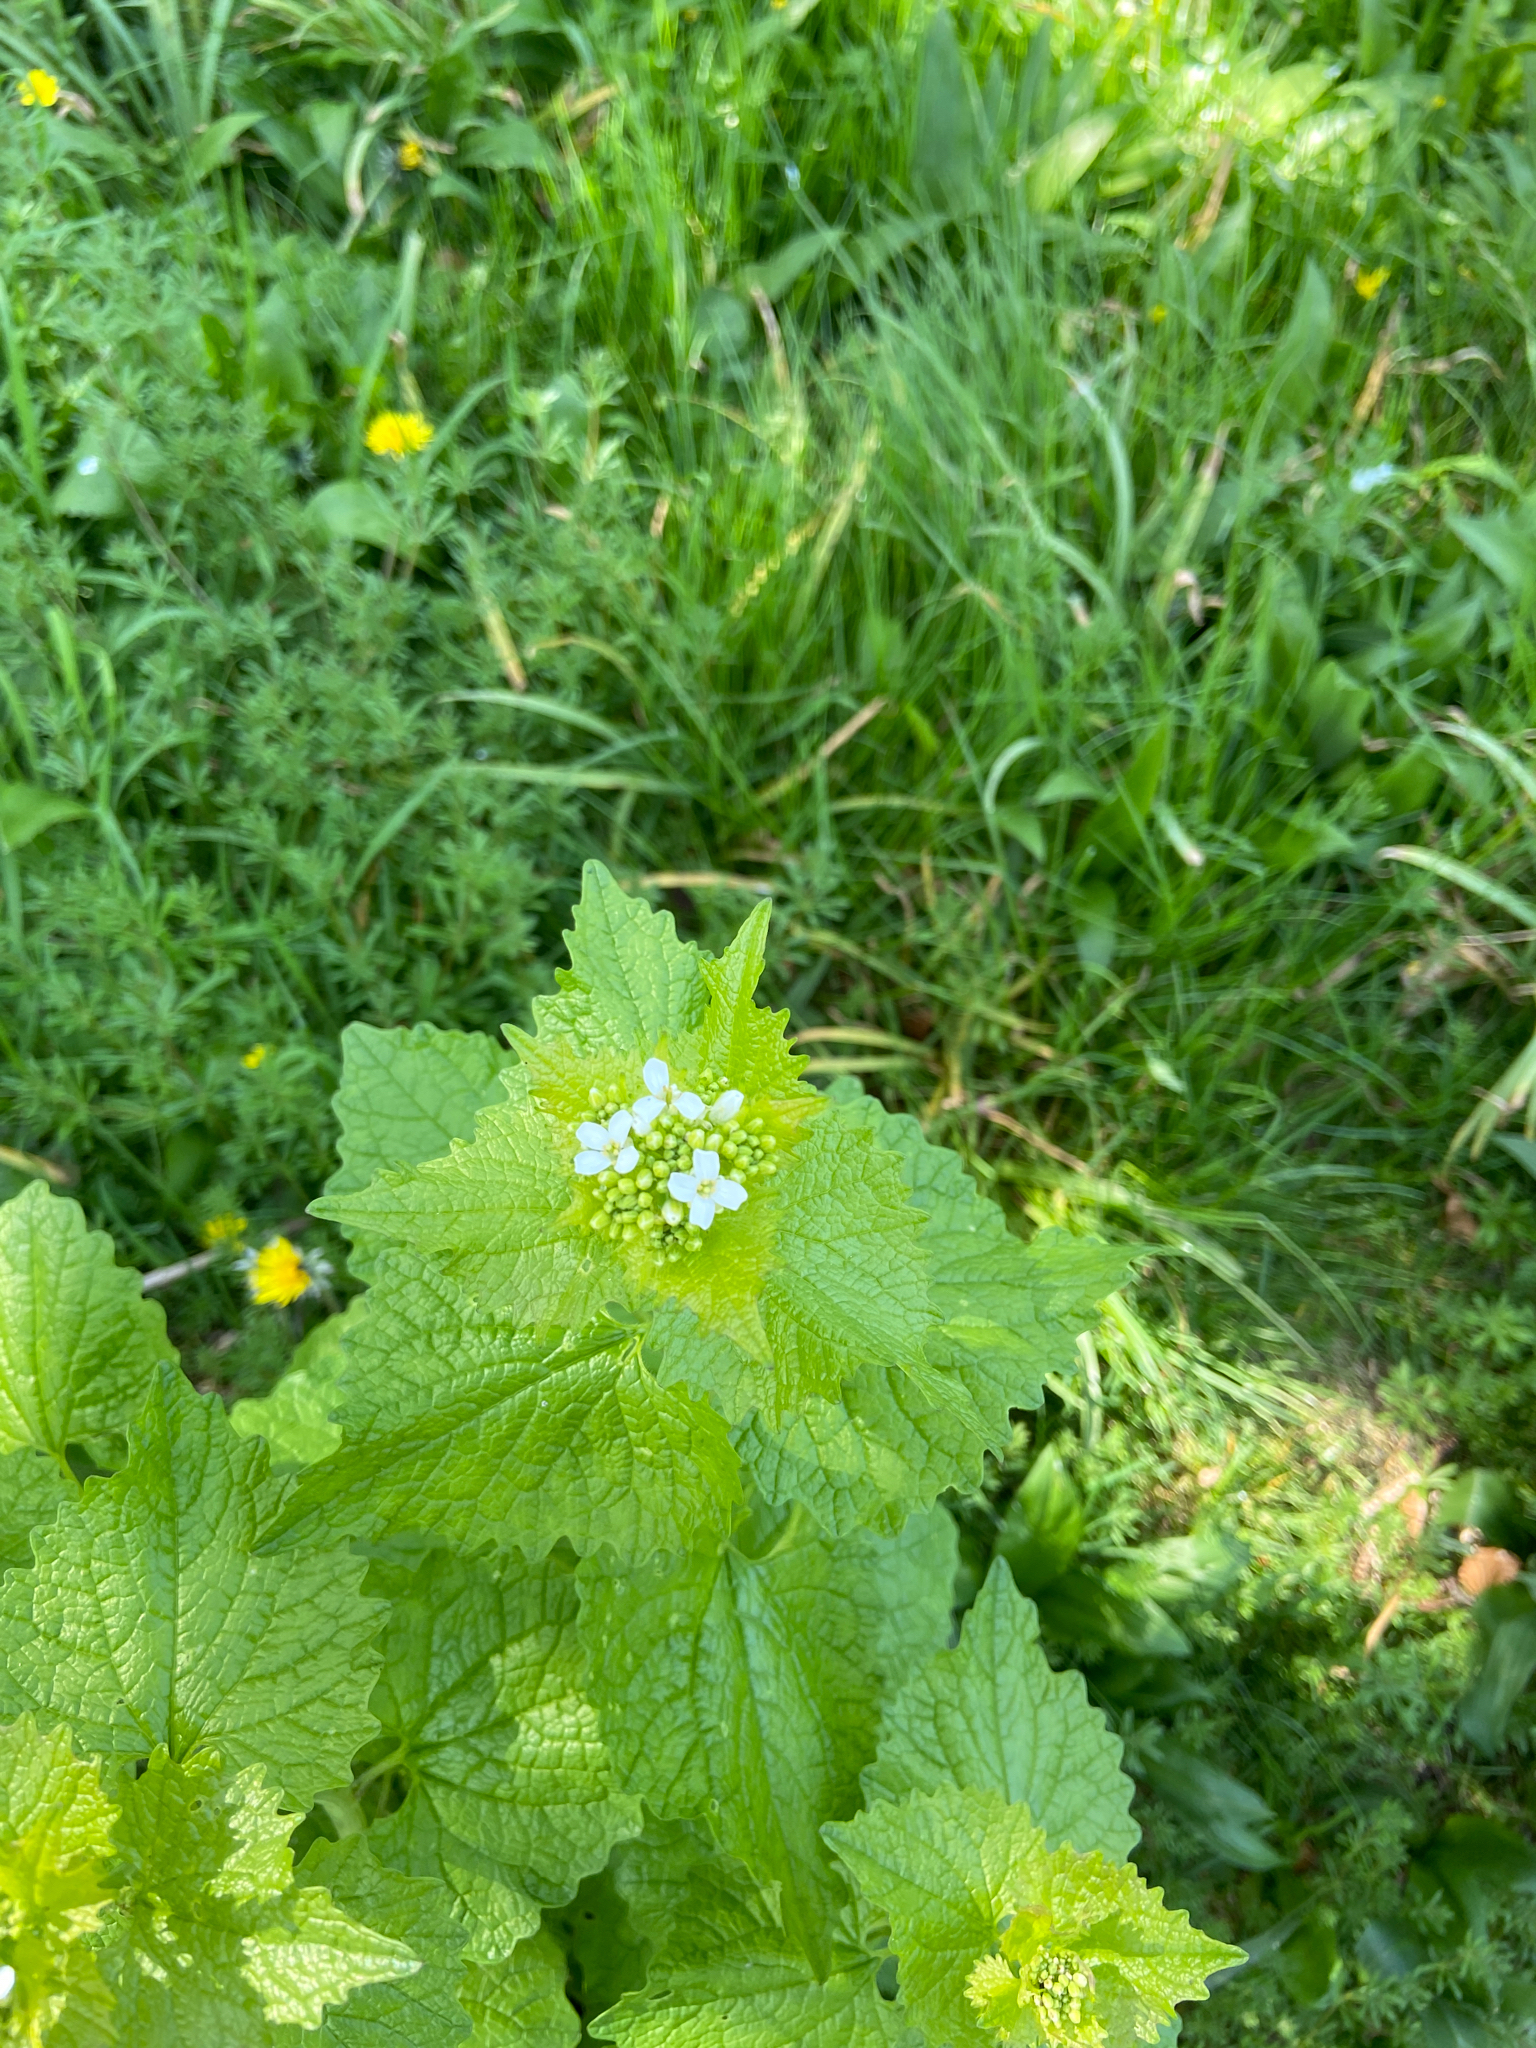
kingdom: Plantae
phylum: Tracheophyta
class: Magnoliopsida
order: Brassicales
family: Brassicaceae
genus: Alliaria
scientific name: Alliaria petiolata
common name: Garlic mustard
